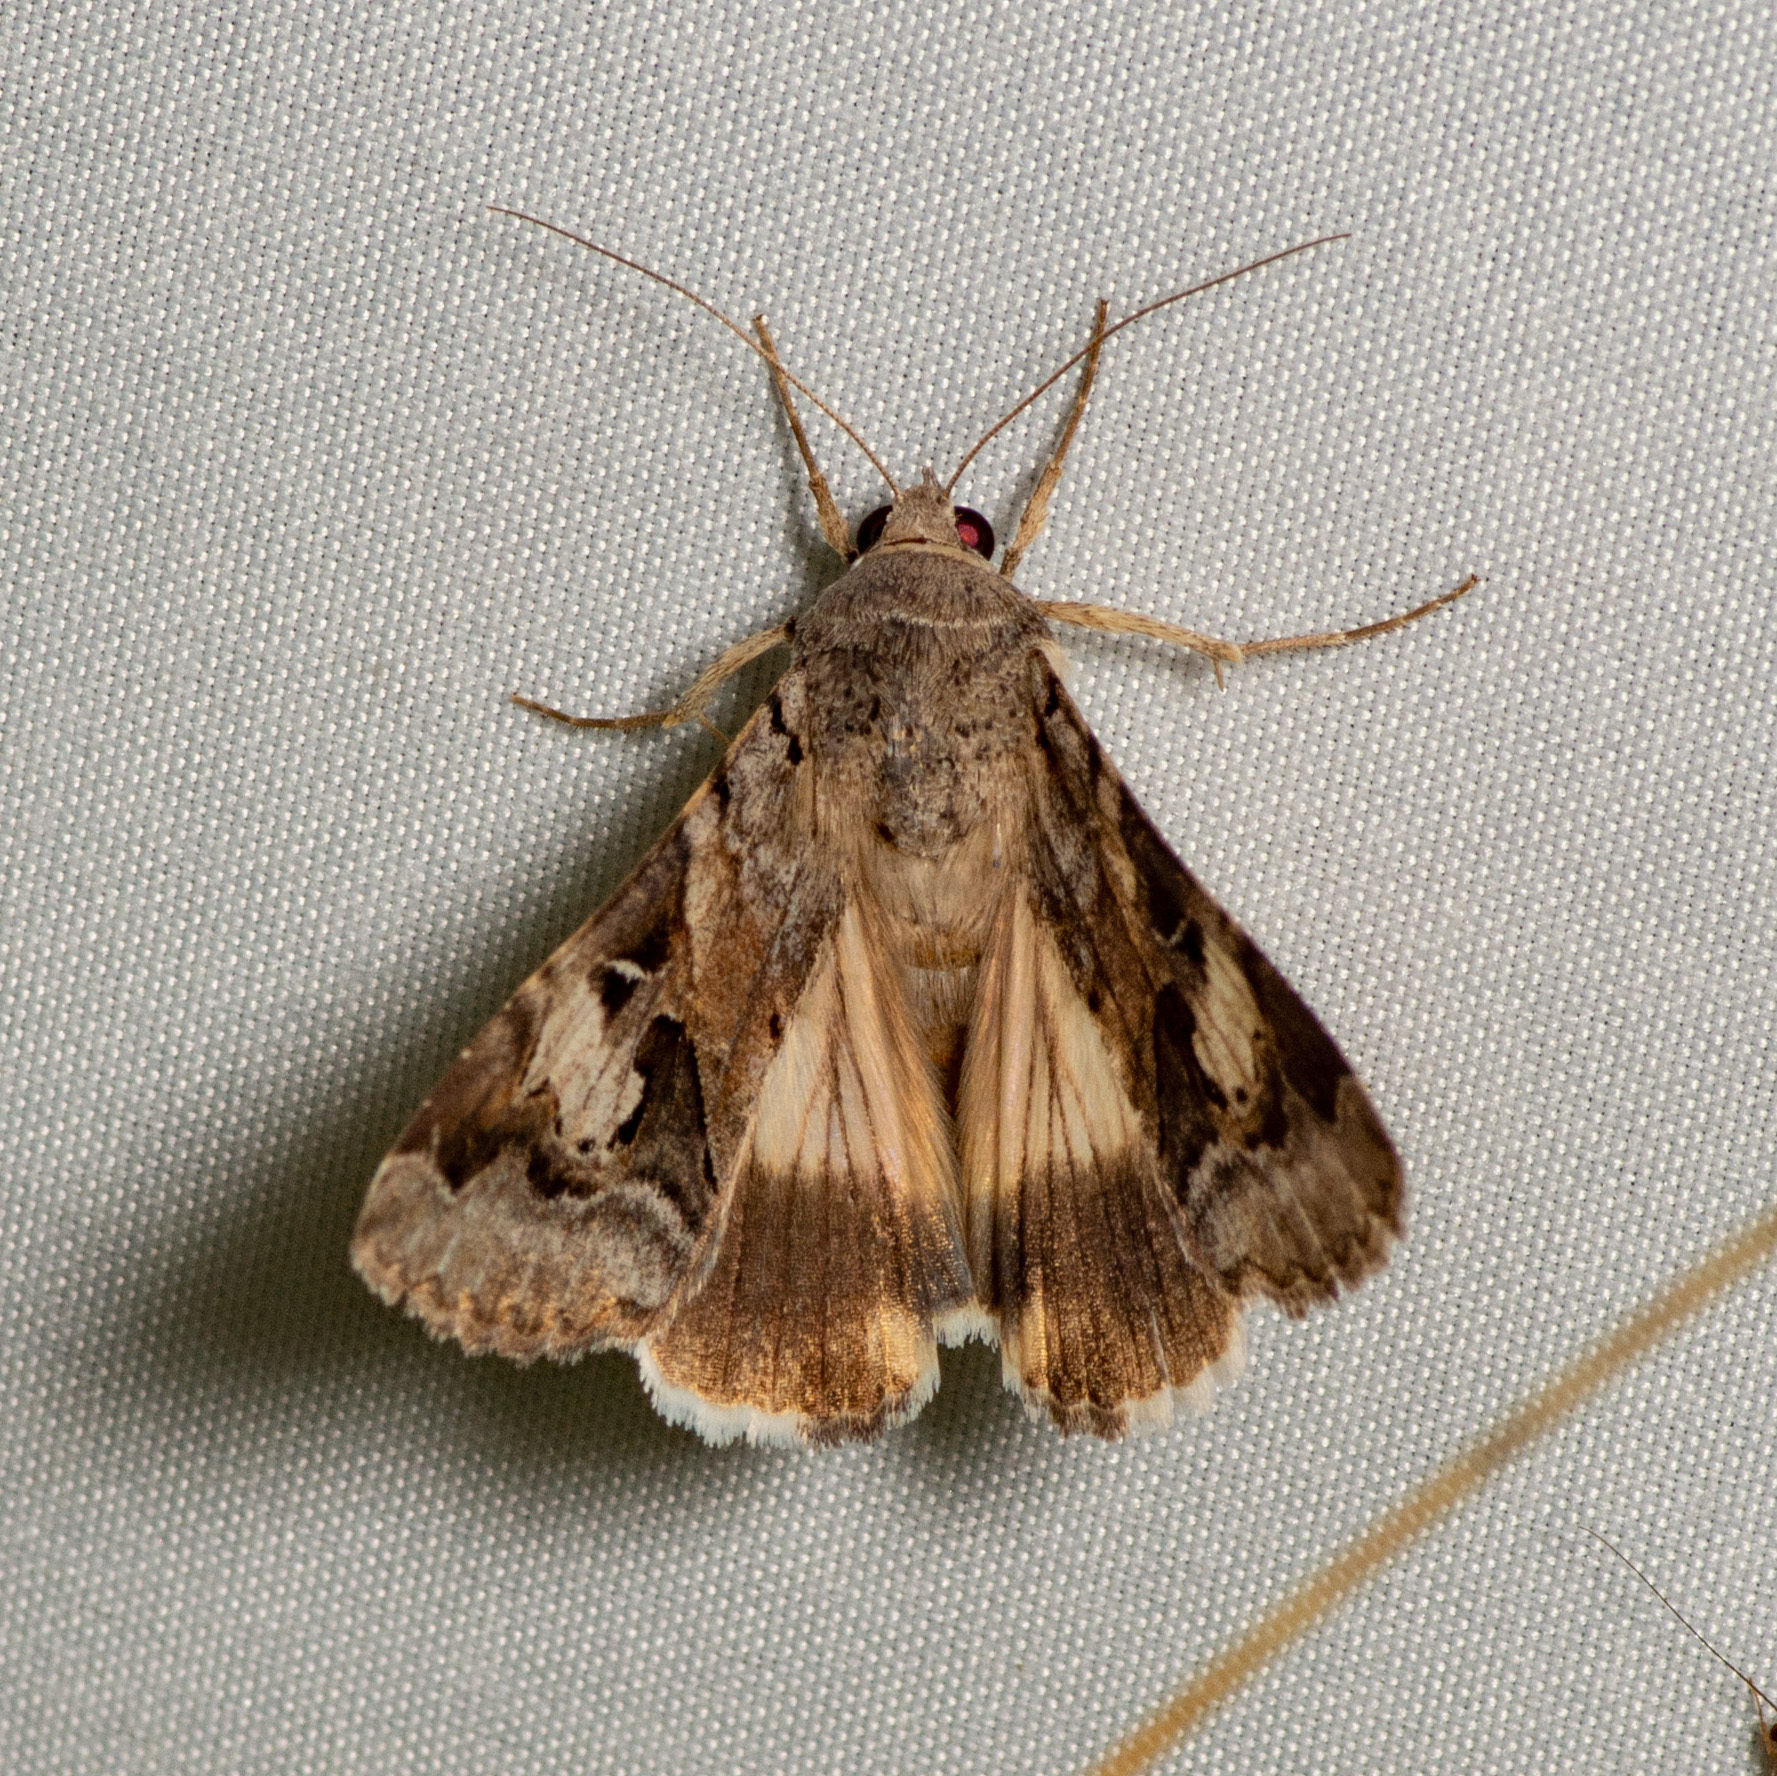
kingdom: Animalia
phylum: Arthropoda
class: Insecta
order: Lepidoptera
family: Erebidae
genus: Melipotis
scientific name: Melipotis indomita
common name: Moth
